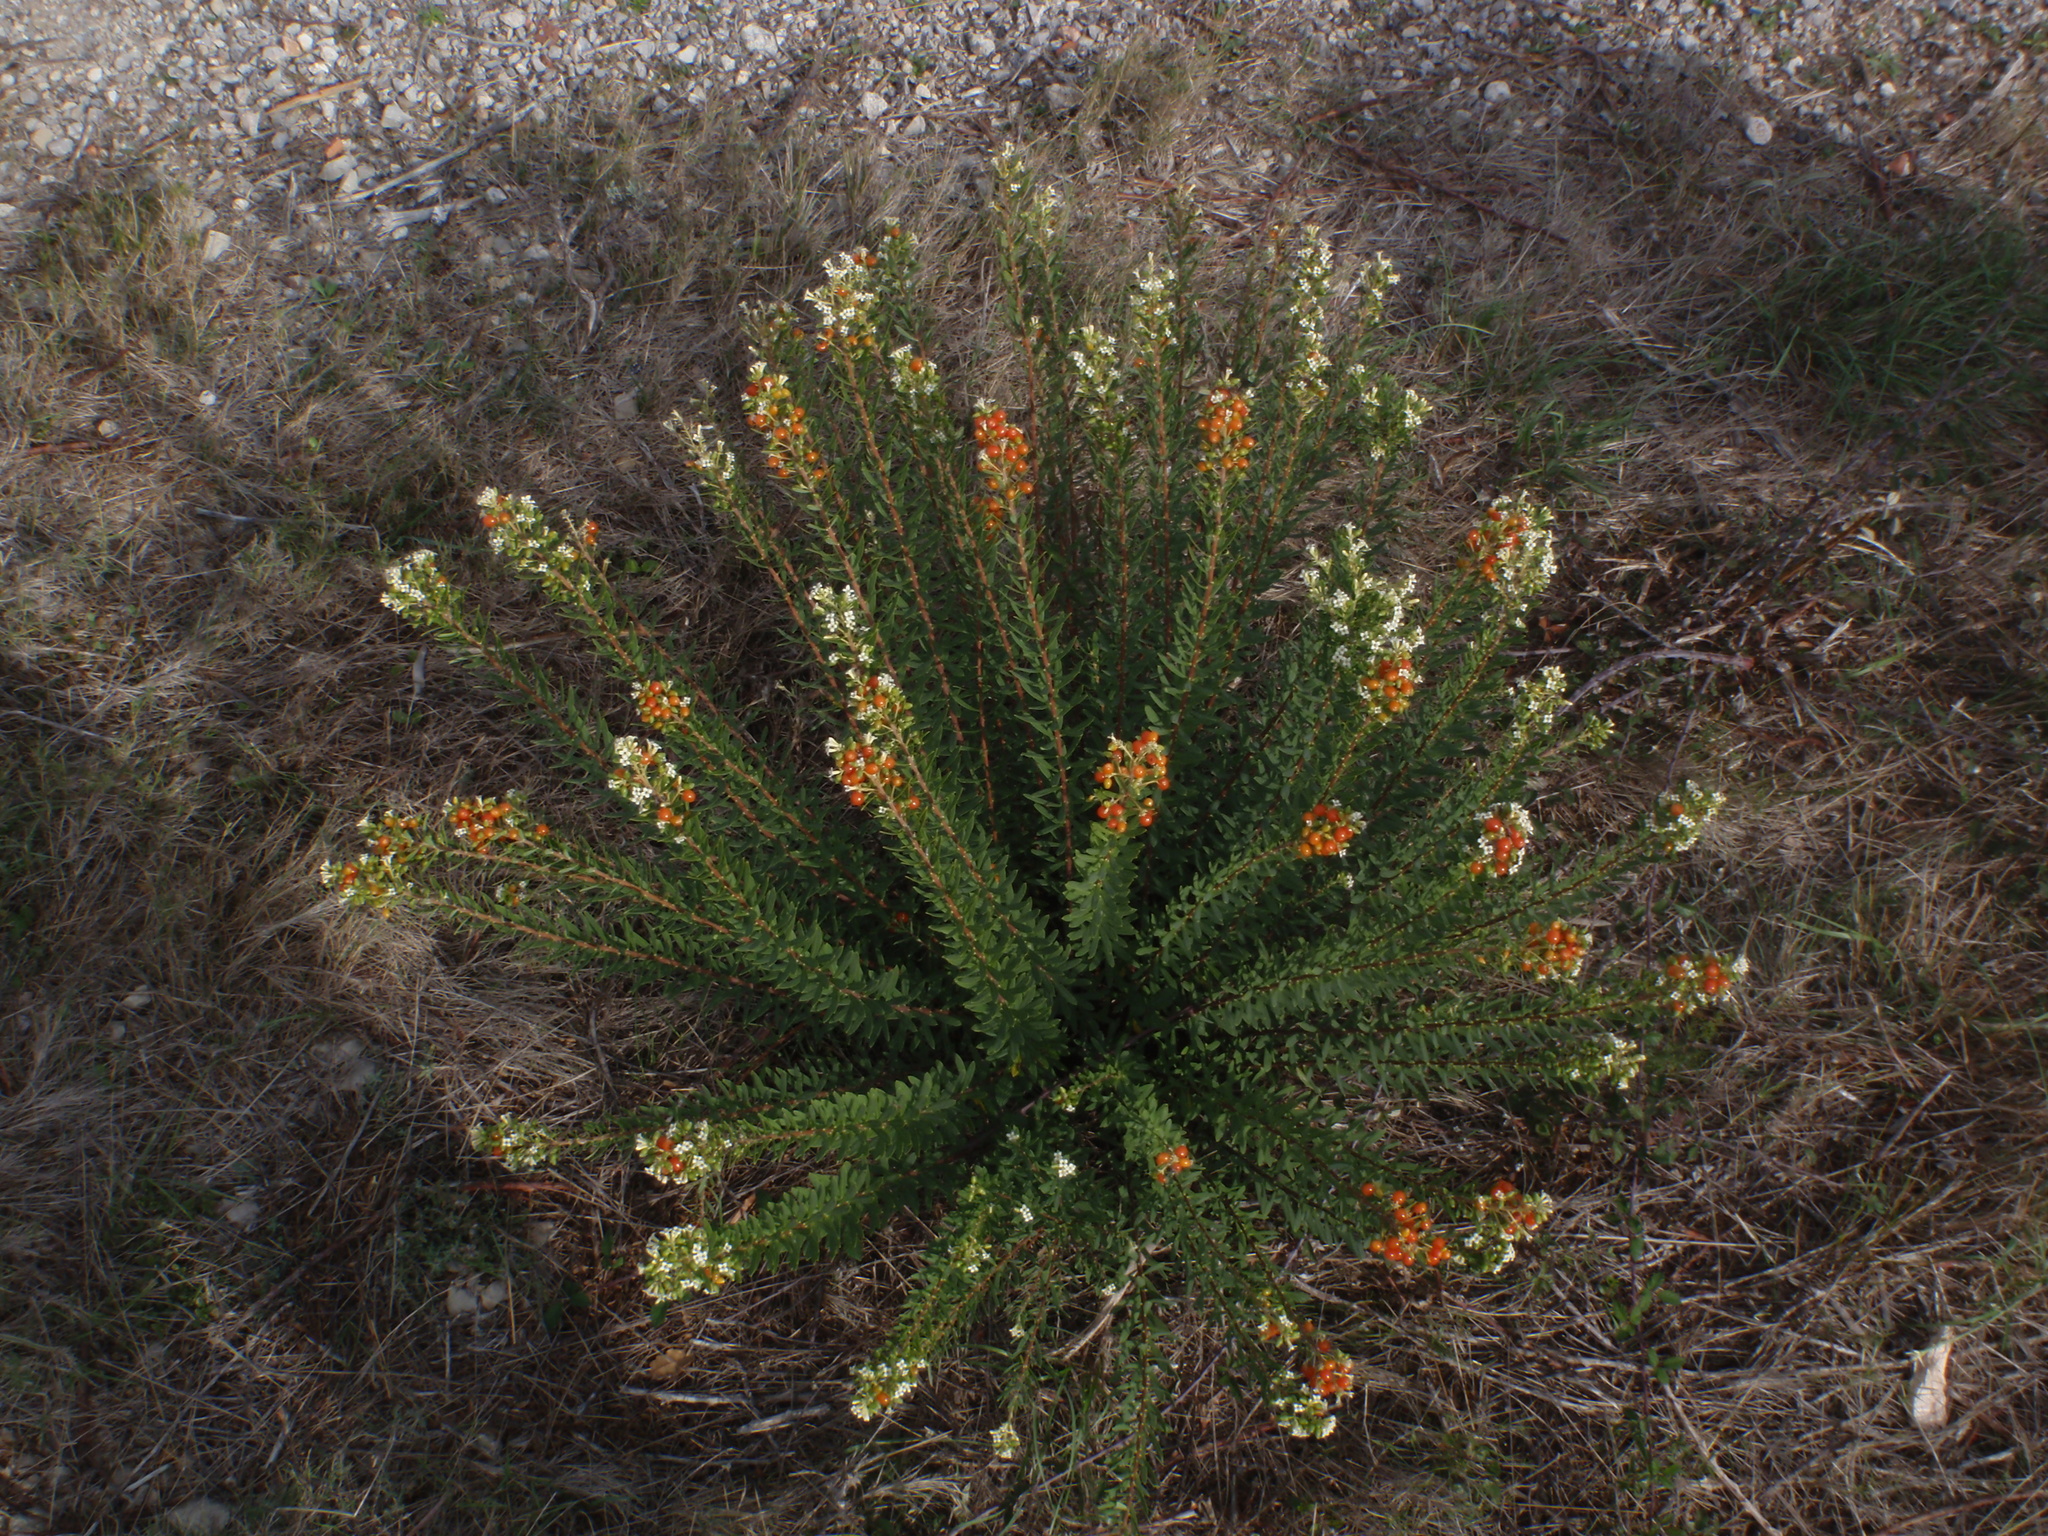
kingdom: Plantae
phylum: Tracheophyta
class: Magnoliopsida
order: Malvales
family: Thymelaeaceae
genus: Daphne
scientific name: Daphne gnidium
